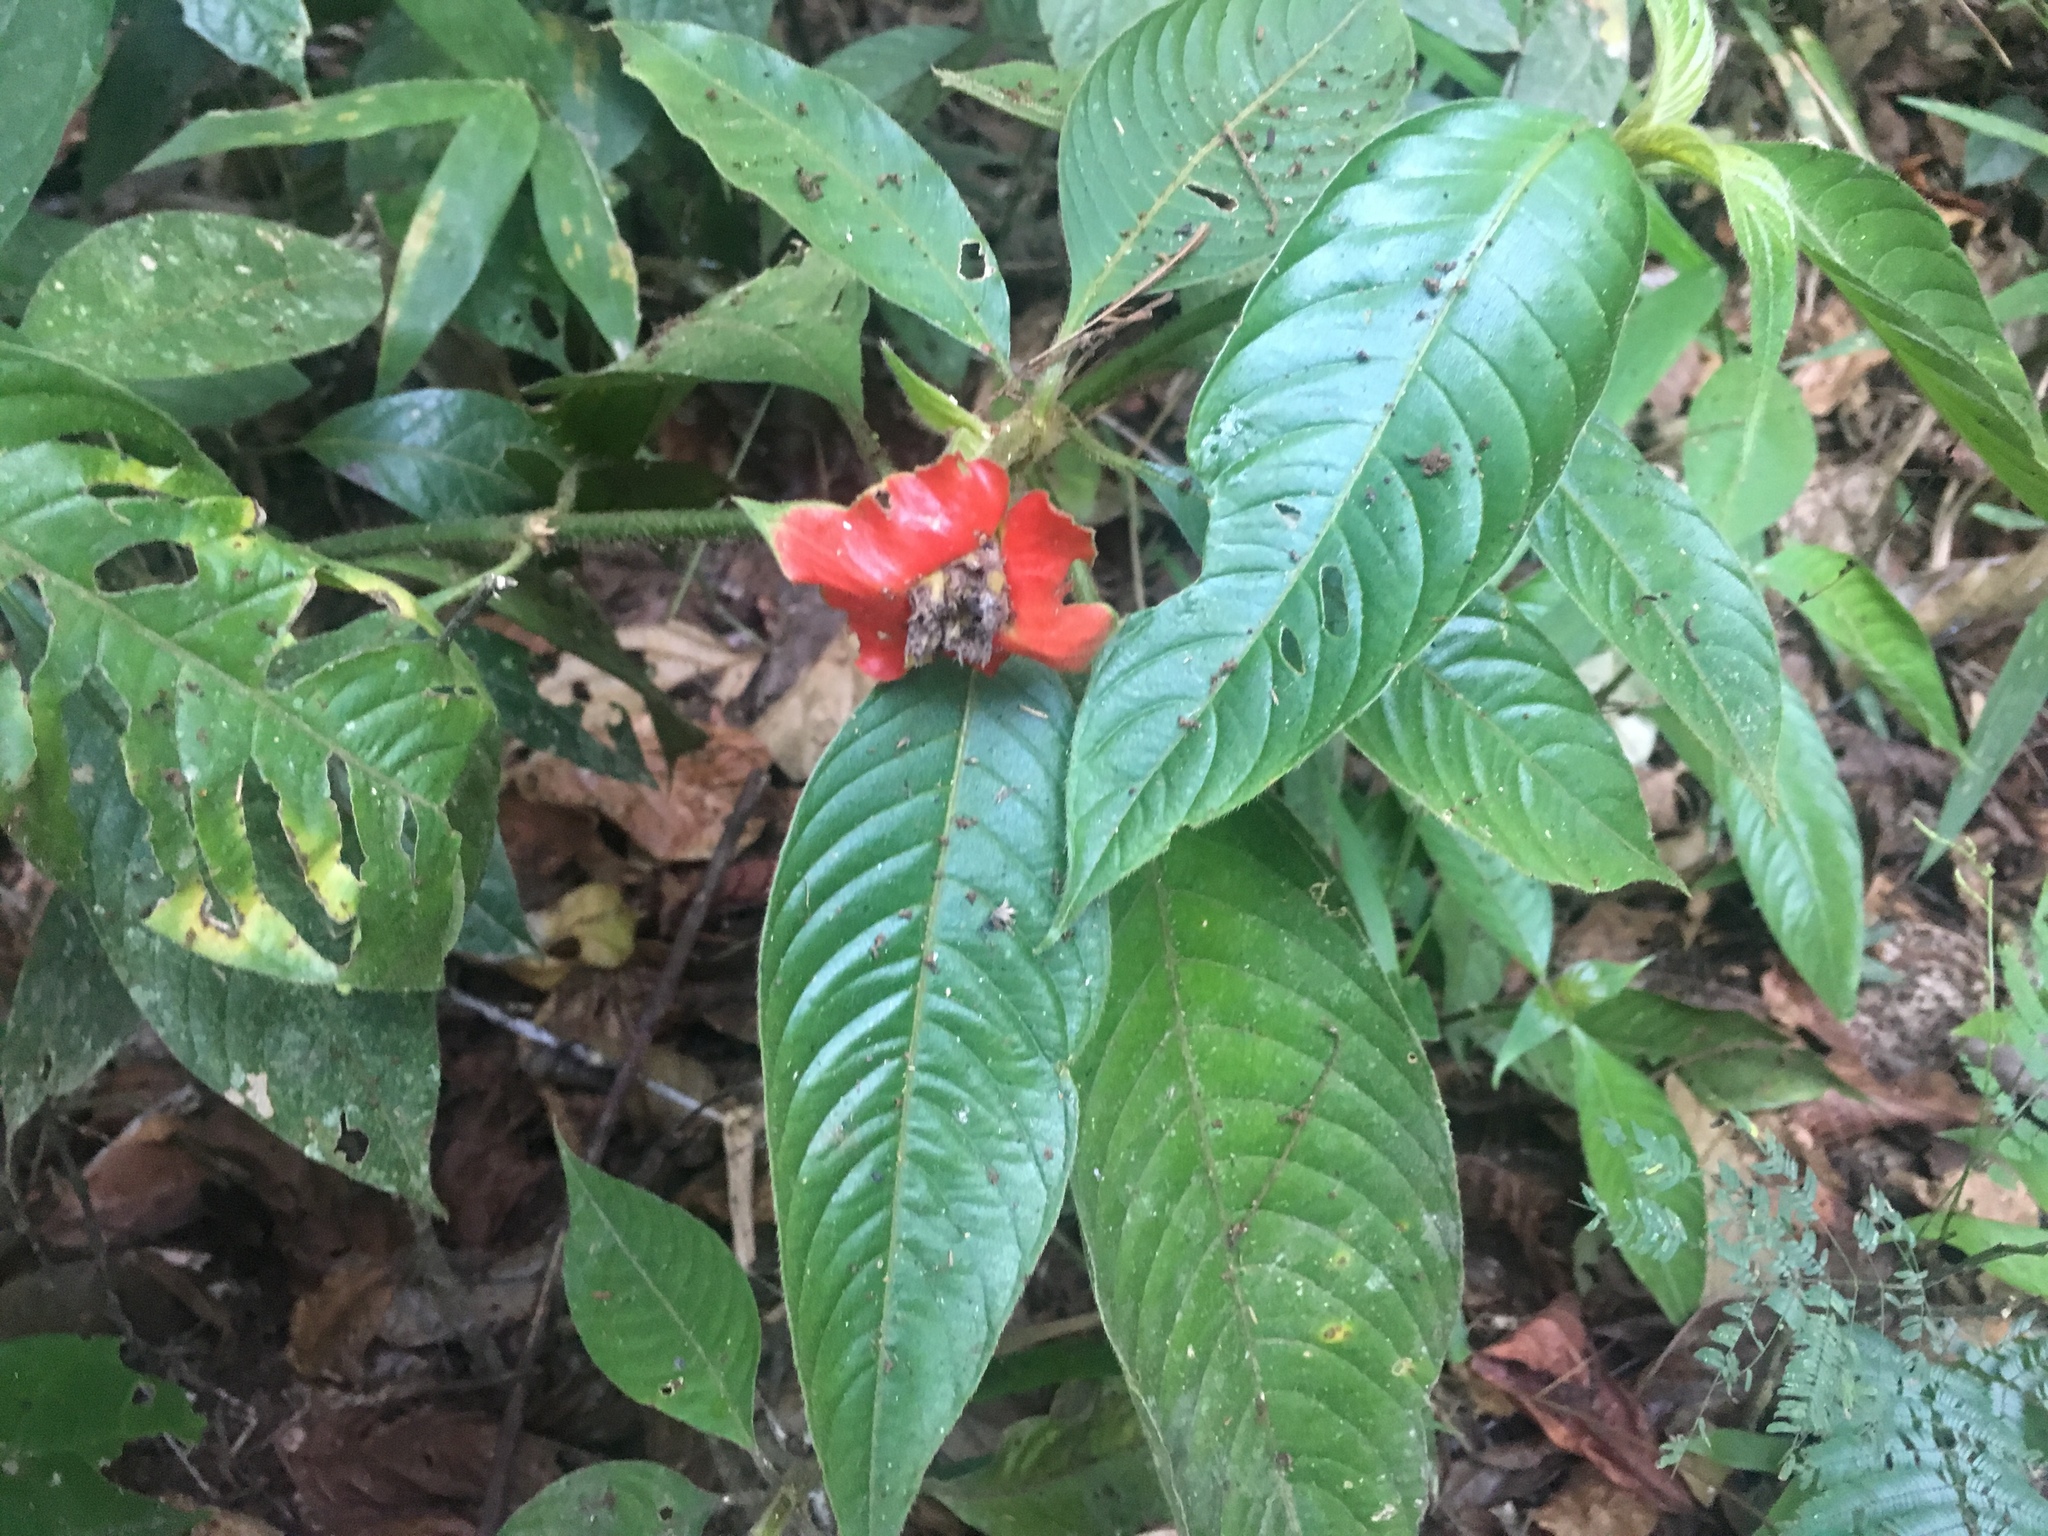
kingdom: Plantae
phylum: Tracheophyta
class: Magnoliopsida
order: Gentianales
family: Rubiaceae
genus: Palicourea
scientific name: Palicourea tomentosa
